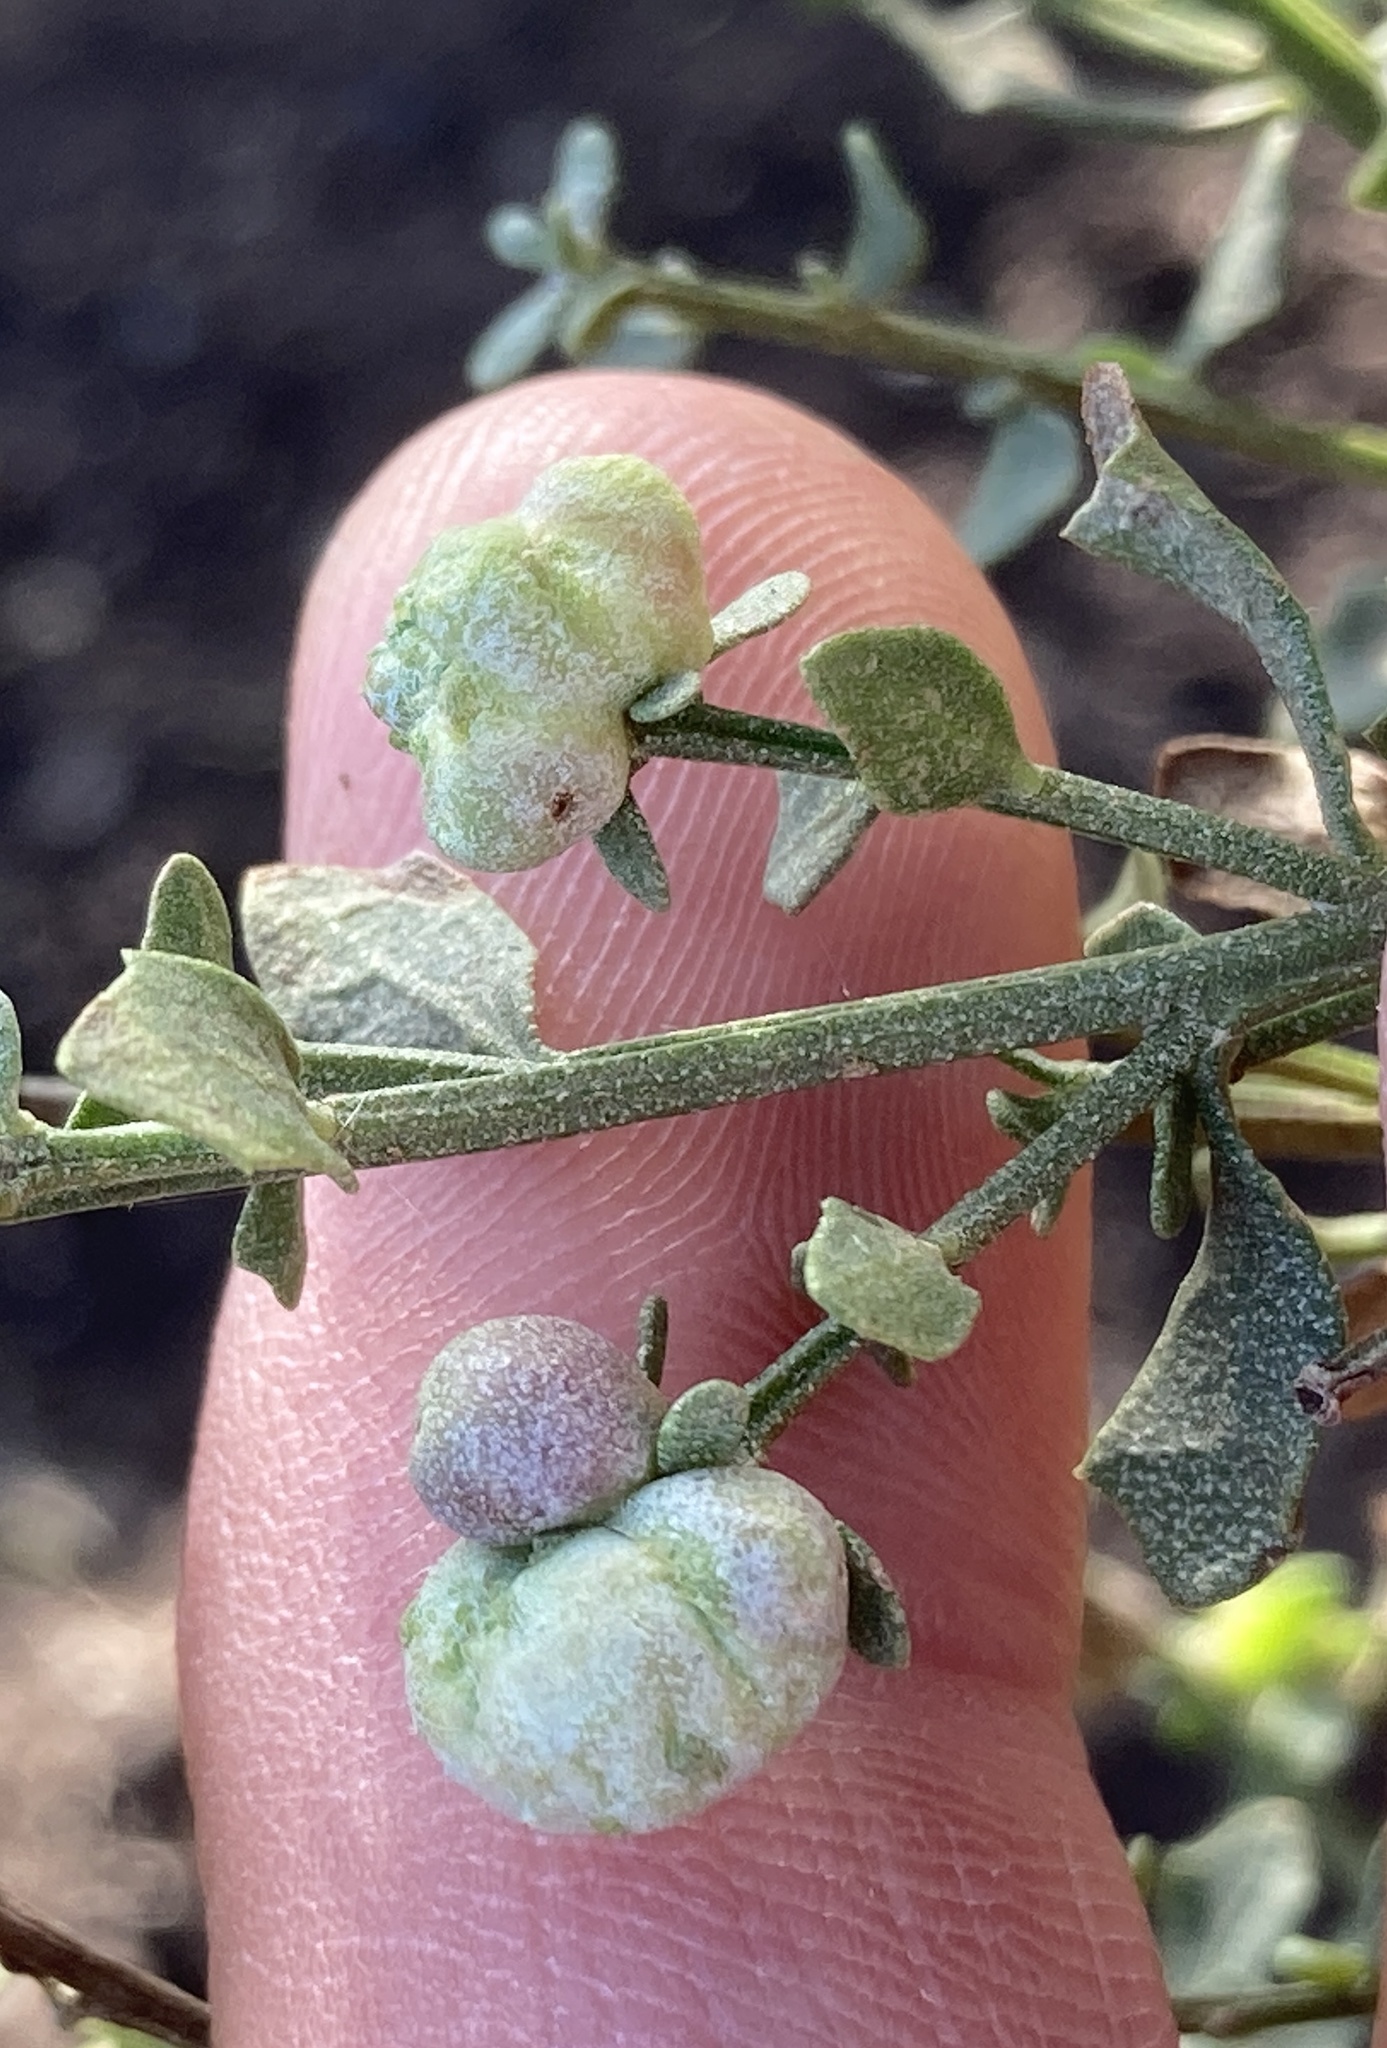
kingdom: Animalia
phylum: Arthropoda
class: Insecta
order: Diptera
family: Cecidomyiidae
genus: Rhopalomyia
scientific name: Rhopalomyia californica
